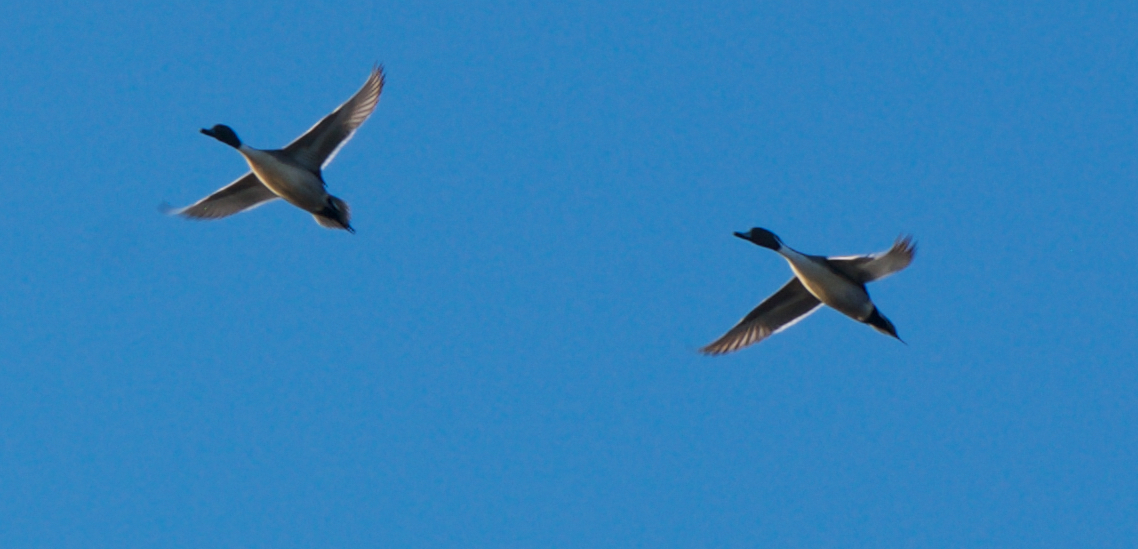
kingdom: Animalia
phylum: Chordata
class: Aves
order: Anseriformes
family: Anatidae
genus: Anas
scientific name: Anas acuta
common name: Northern pintail
